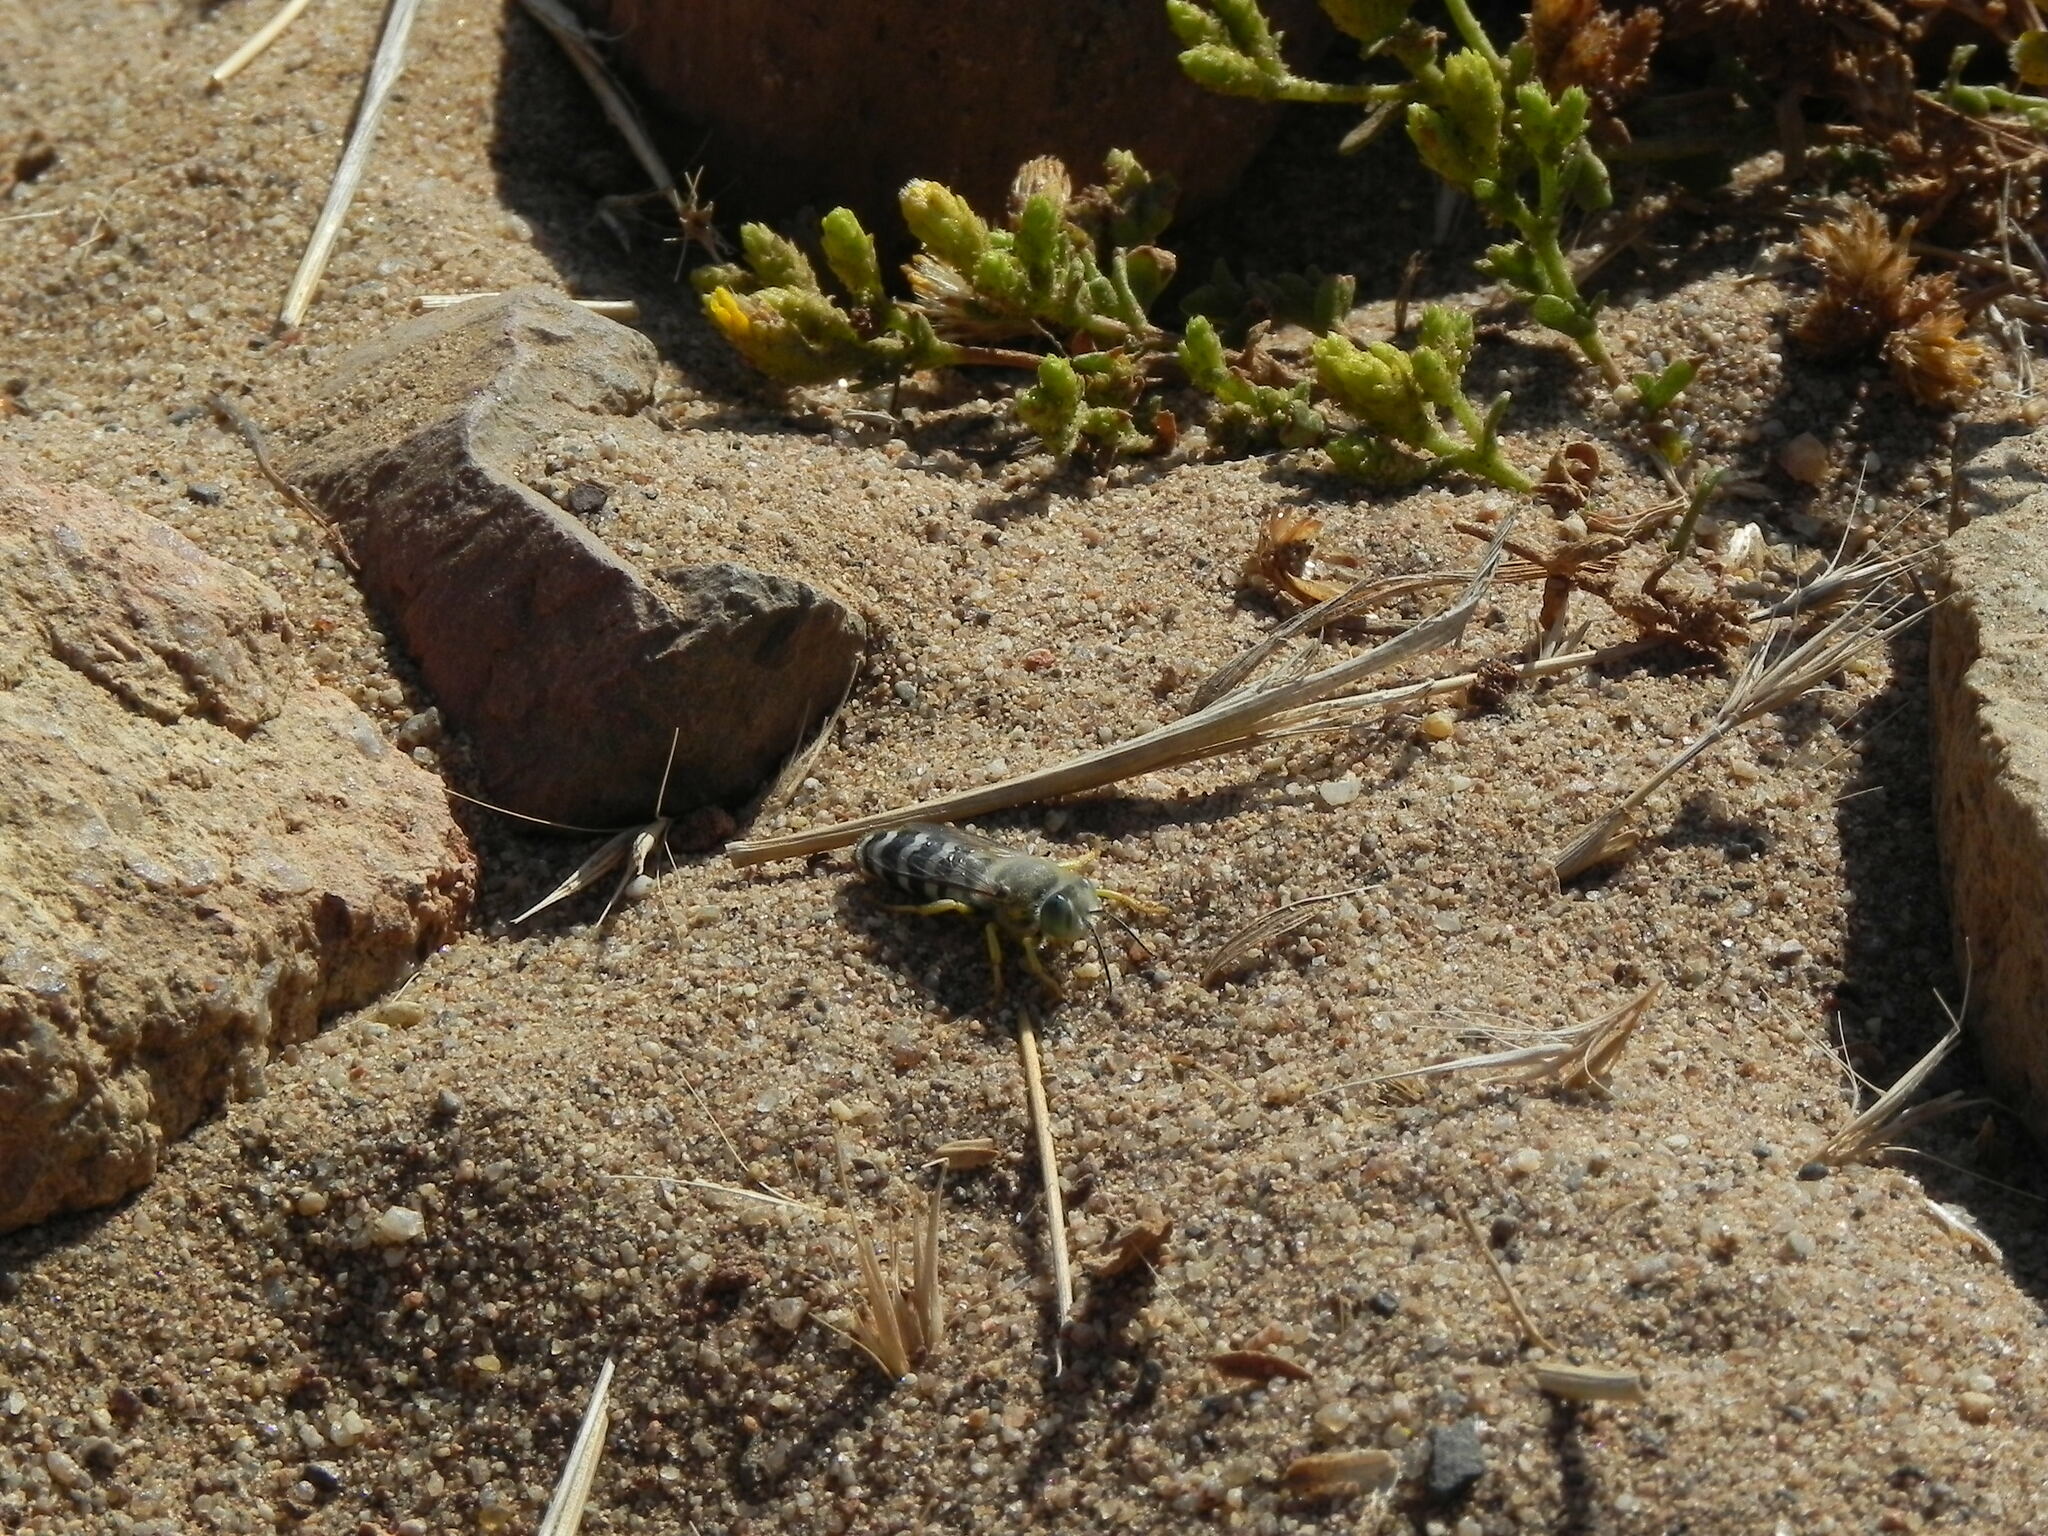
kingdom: Animalia
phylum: Arthropoda
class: Insecta
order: Hymenoptera
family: Crabronidae
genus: Bembix
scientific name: Bembix americana
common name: American sand wasp
